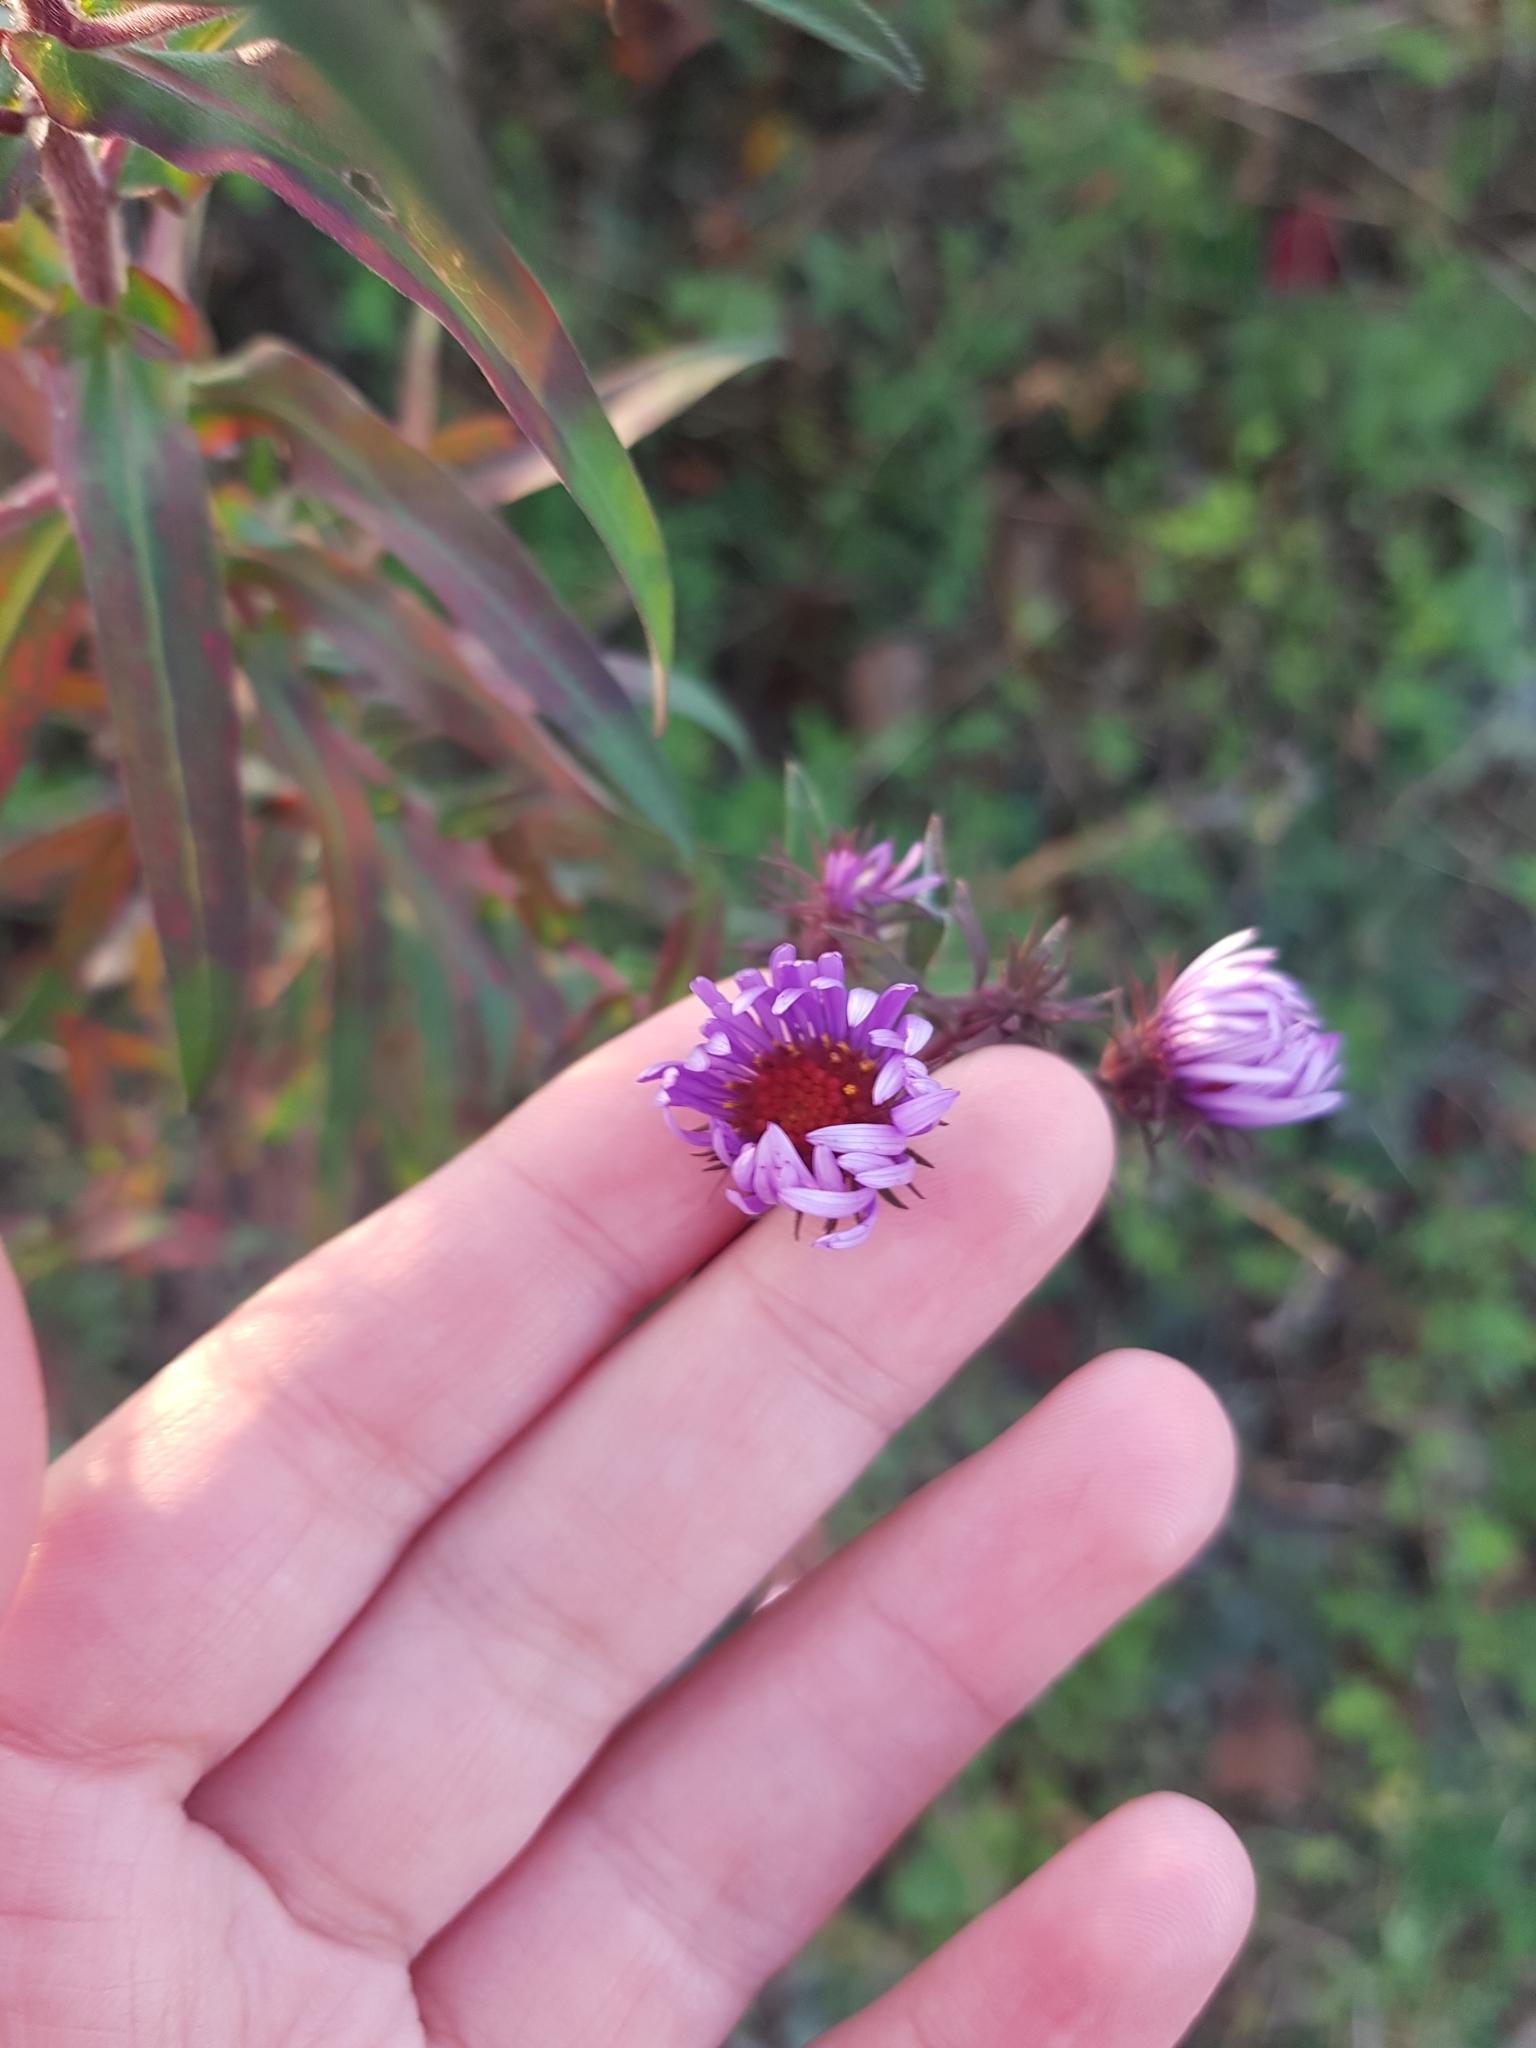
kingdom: Plantae
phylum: Tracheophyta
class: Magnoliopsida
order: Asterales
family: Asteraceae
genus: Symphyotrichum
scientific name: Symphyotrichum novae-angliae
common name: Michaelmas daisy
